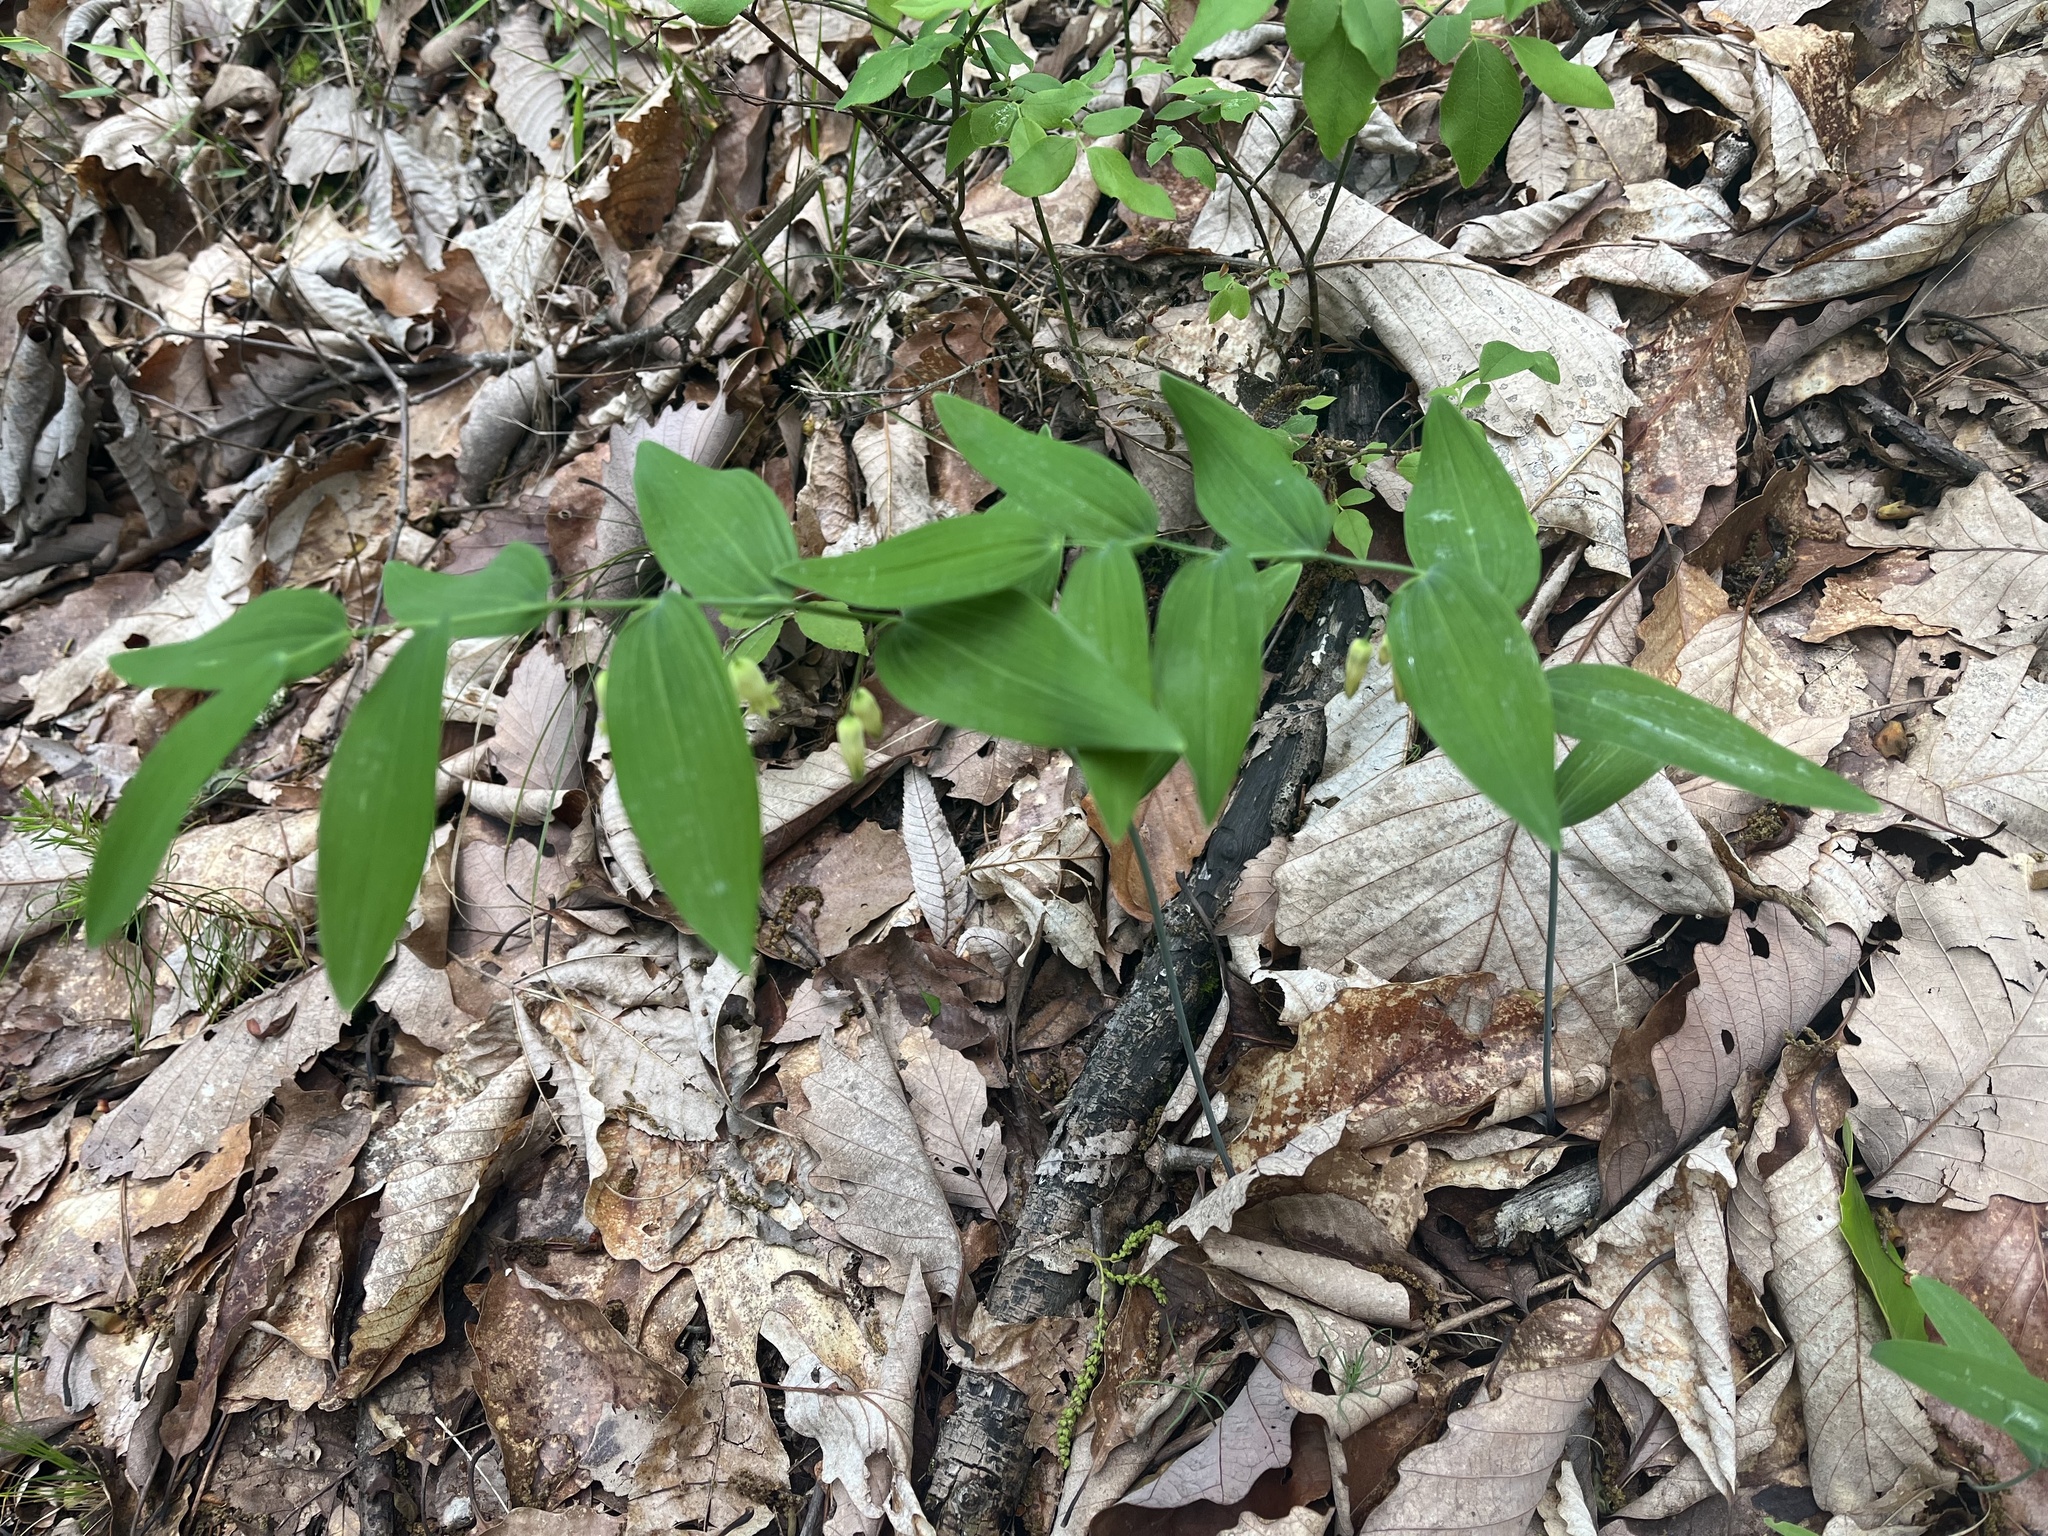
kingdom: Plantae
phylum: Tracheophyta
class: Liliopsida
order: Asparagales
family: Asparagaceae
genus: Polygonatum
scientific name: Polygonatum biflorum
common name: American solomon's-seal
